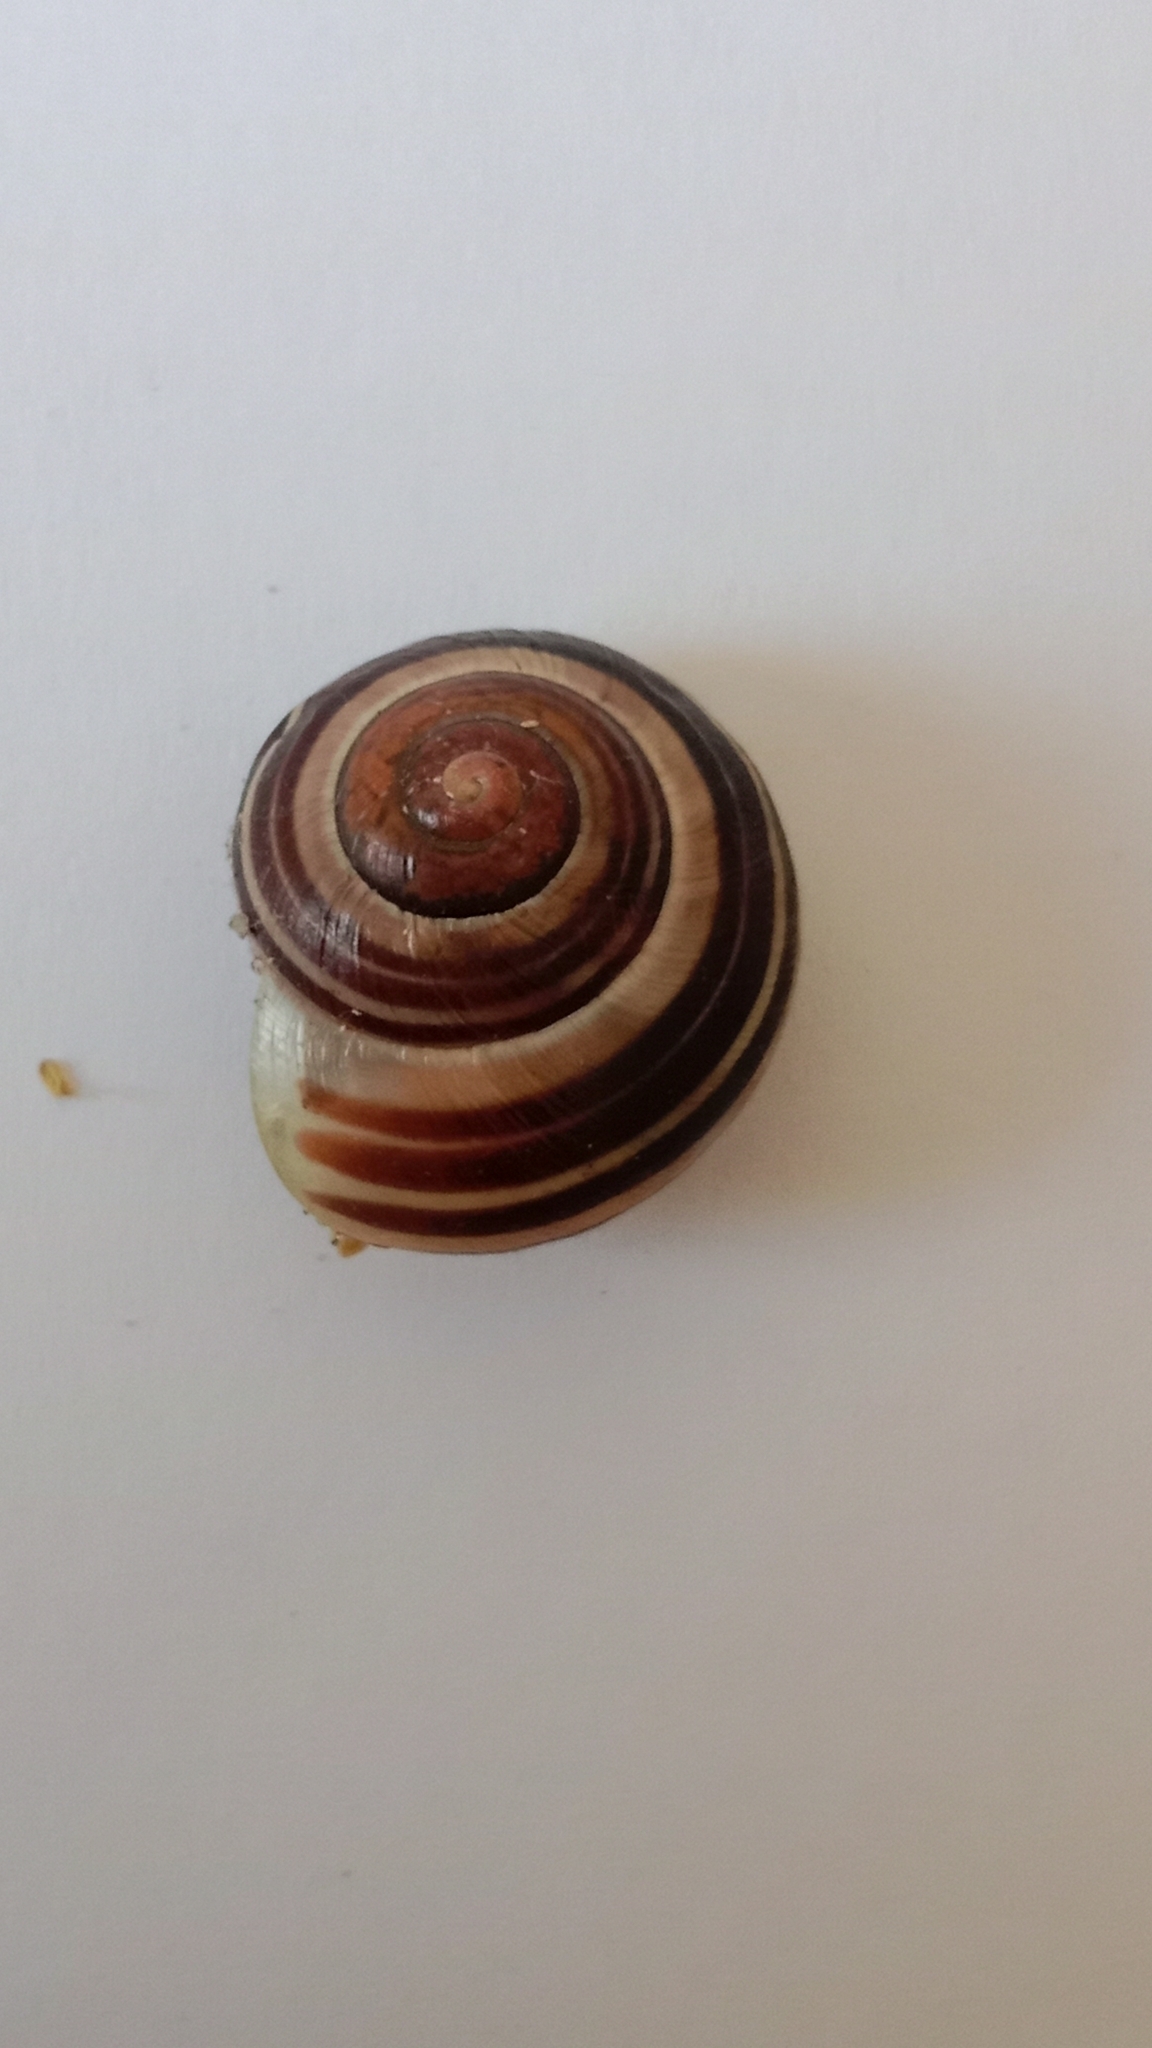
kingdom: Animalia
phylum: Mollusca
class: Gastropoda
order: Stylommatophora
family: Helicidae
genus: Cepaea
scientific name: Cepaea
